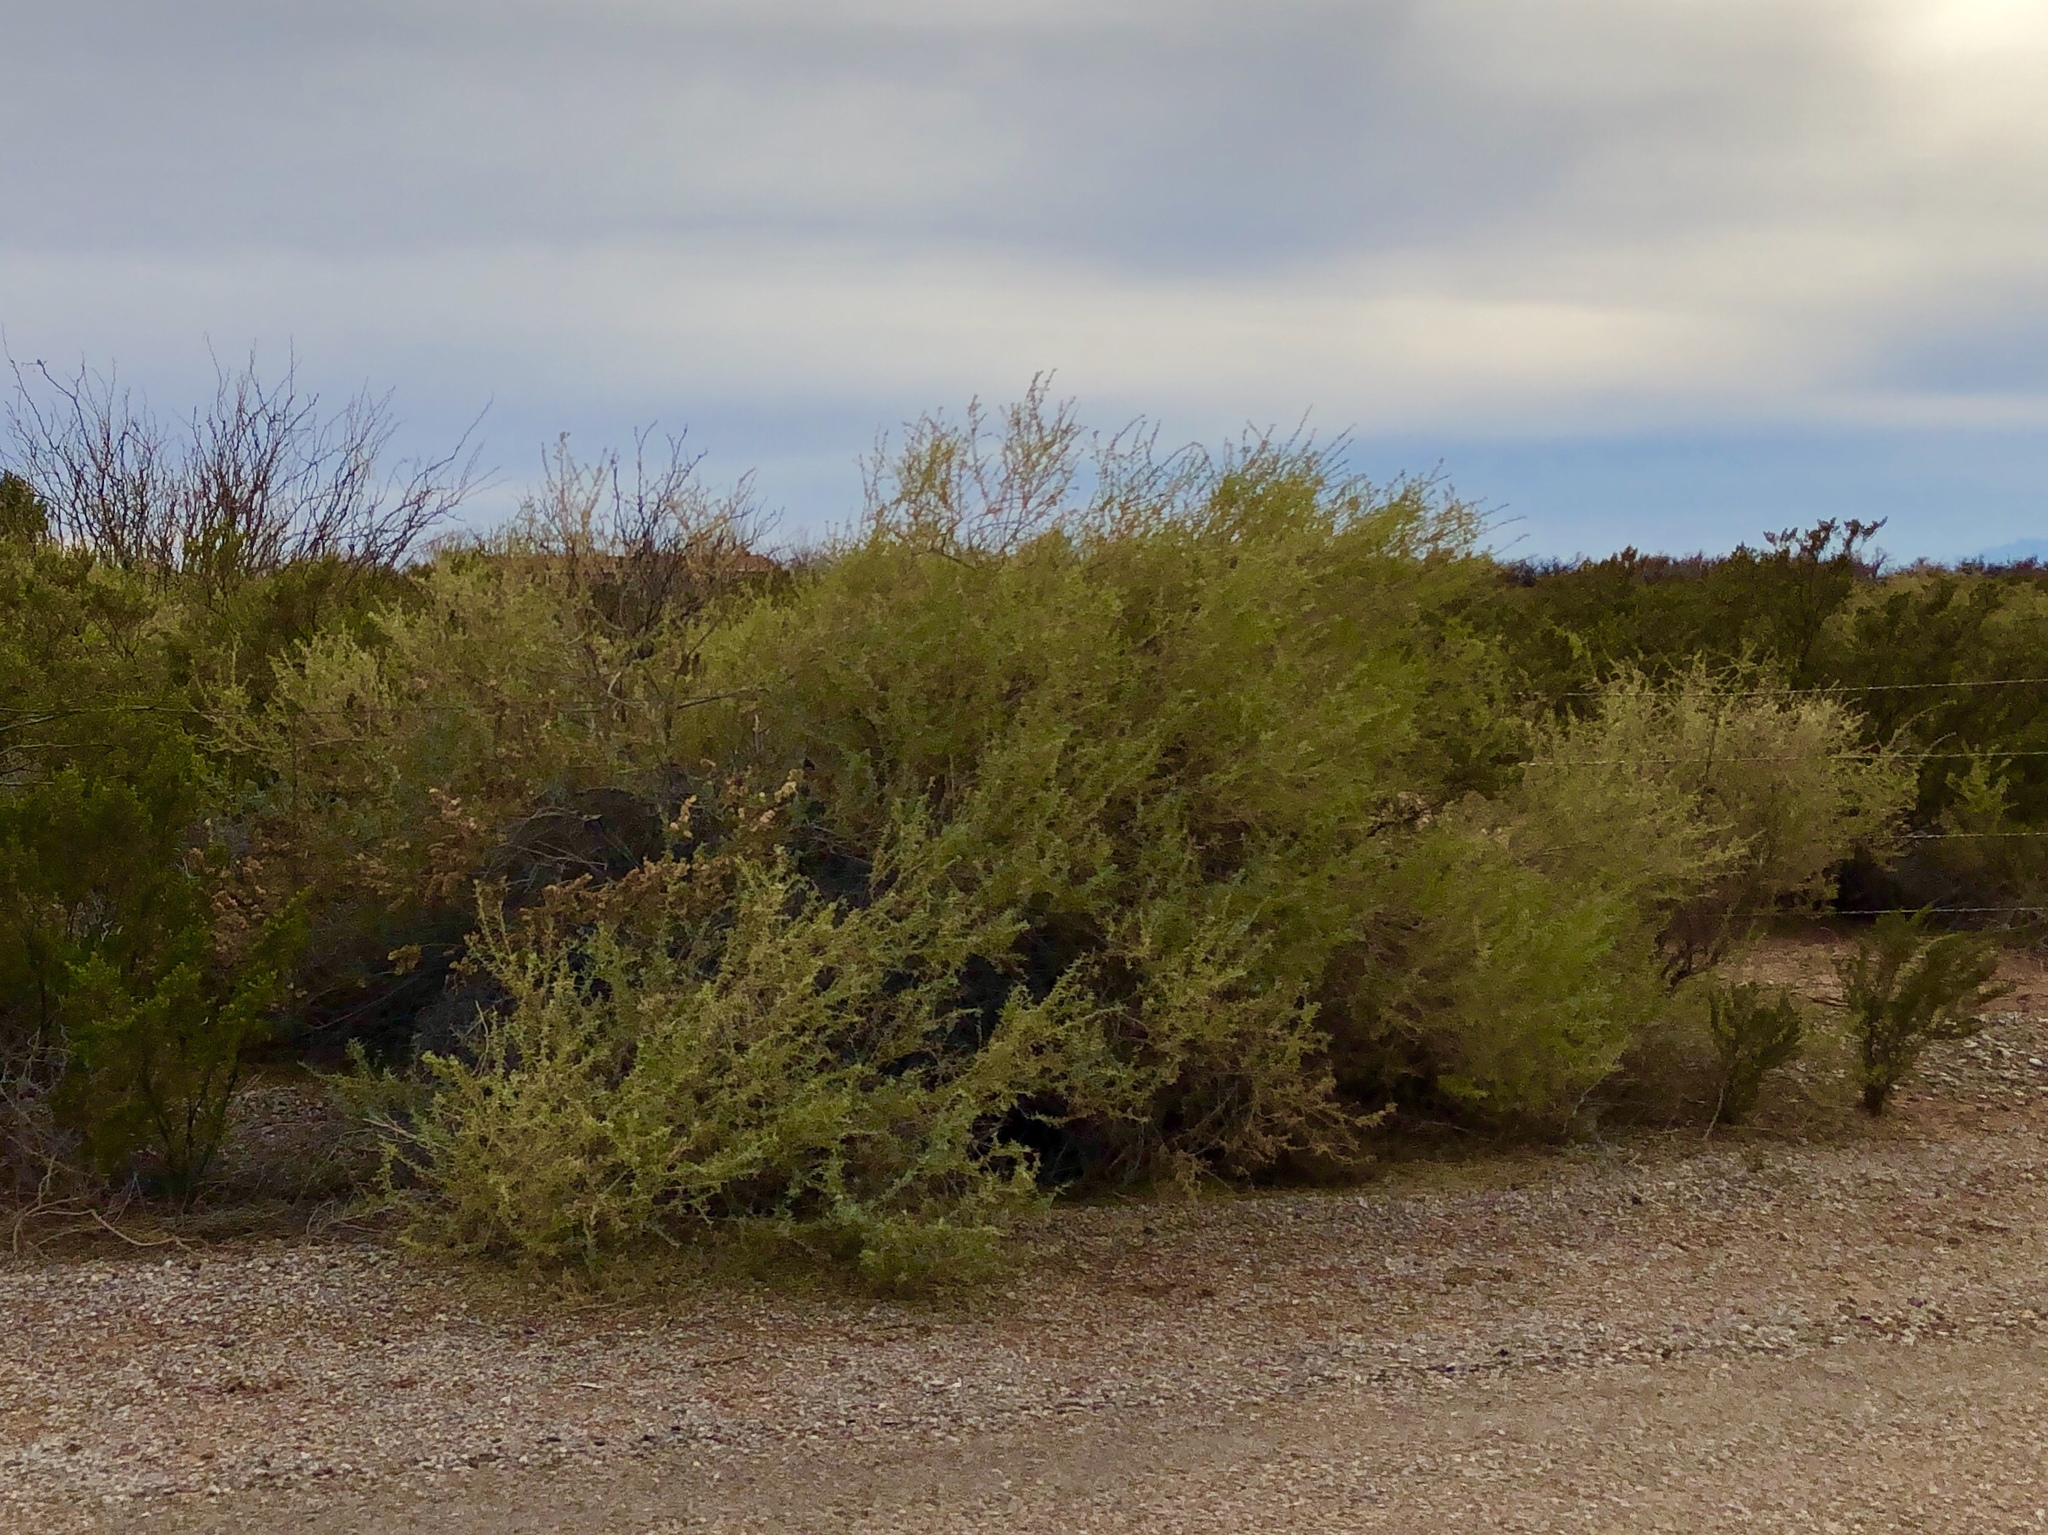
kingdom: Plantae
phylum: Tracheophyta
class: Magnoliopsida
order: Caryophyllales
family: Amaranthaceae
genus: Atriplex
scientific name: Atriplex canescens
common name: Four-wing saltbush
